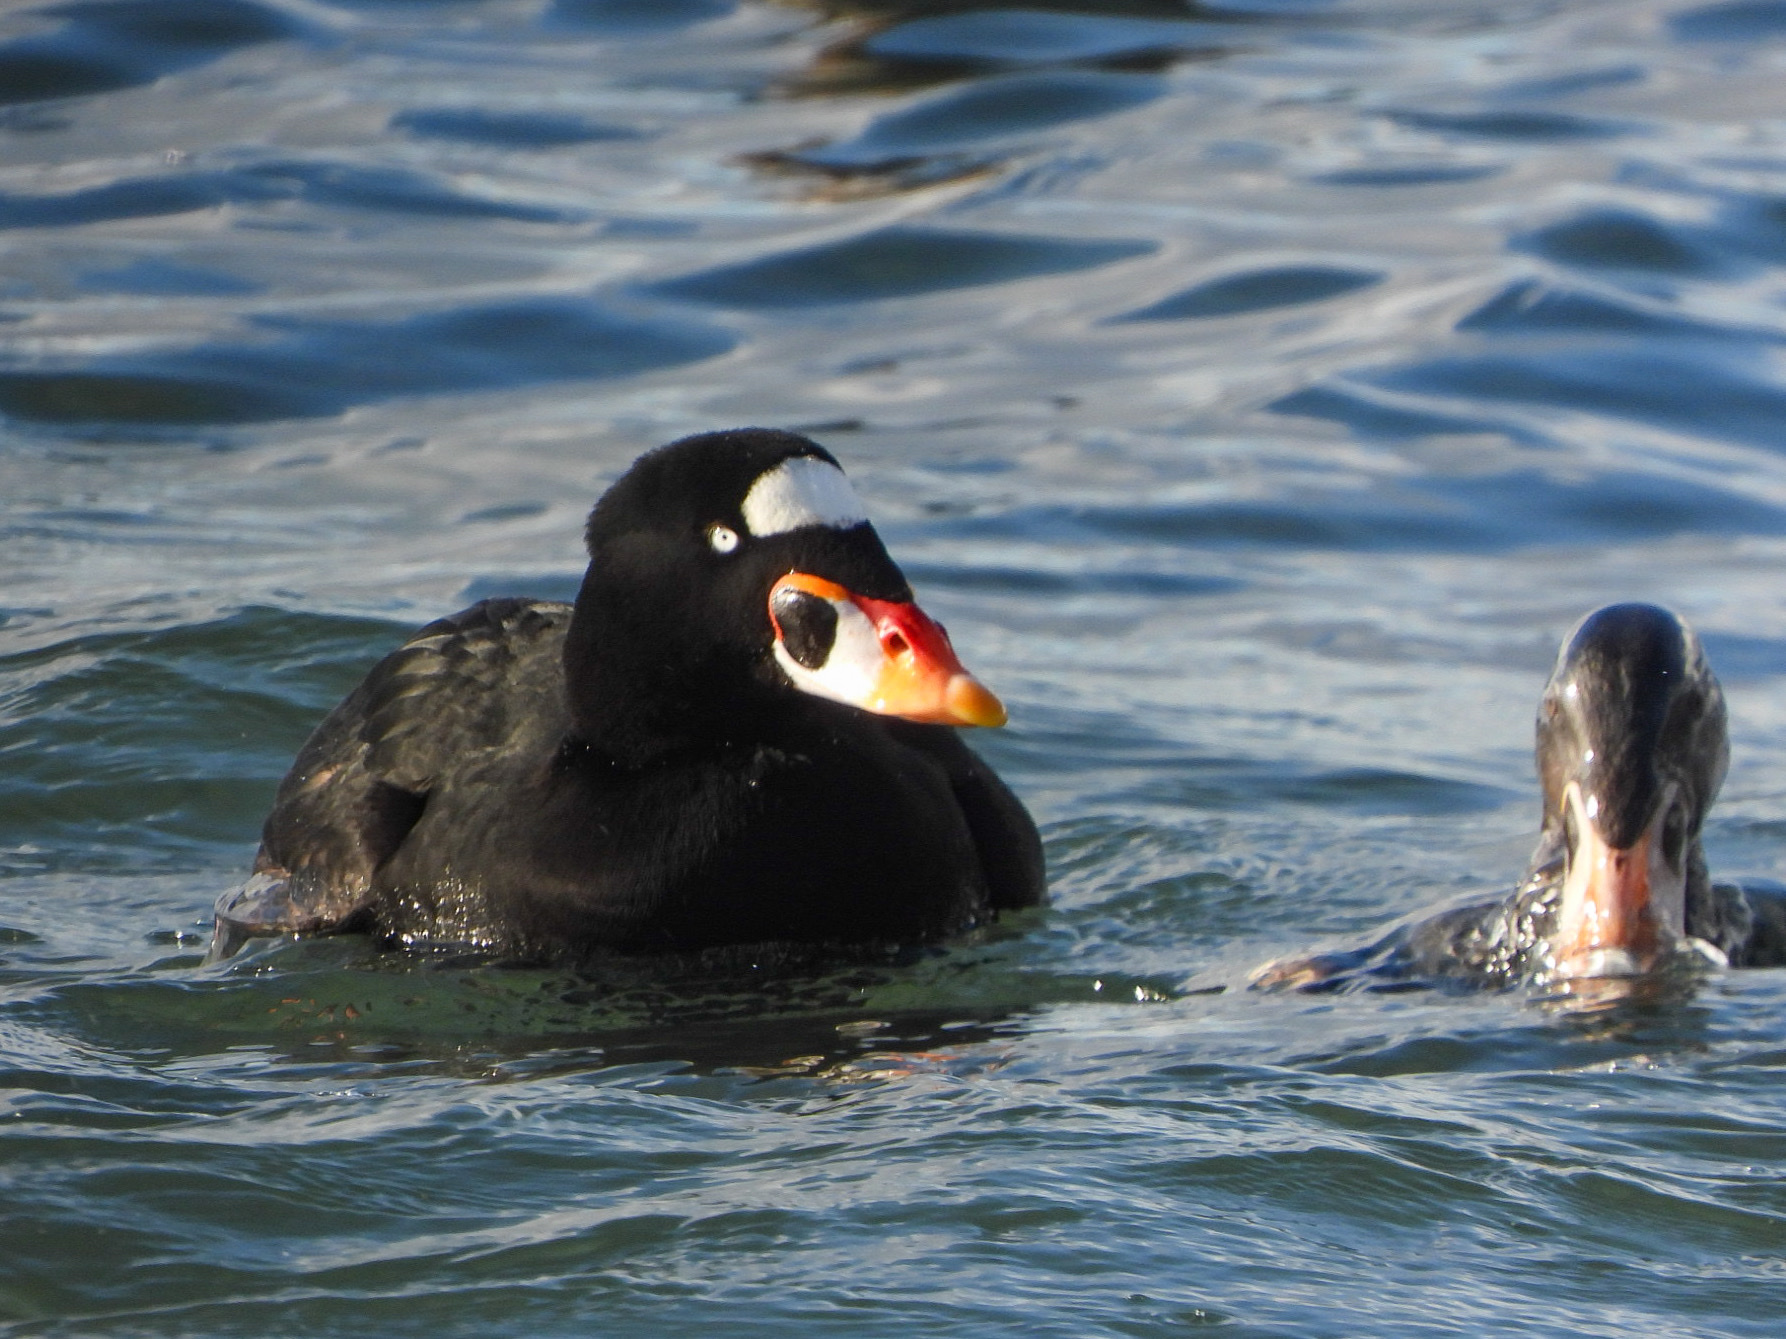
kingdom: Animalia
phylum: Chordata
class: Aves
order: Anseriformes
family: Anatidae
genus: Melanitta
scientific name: Melanitta perspicillata
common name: Surf scoter
